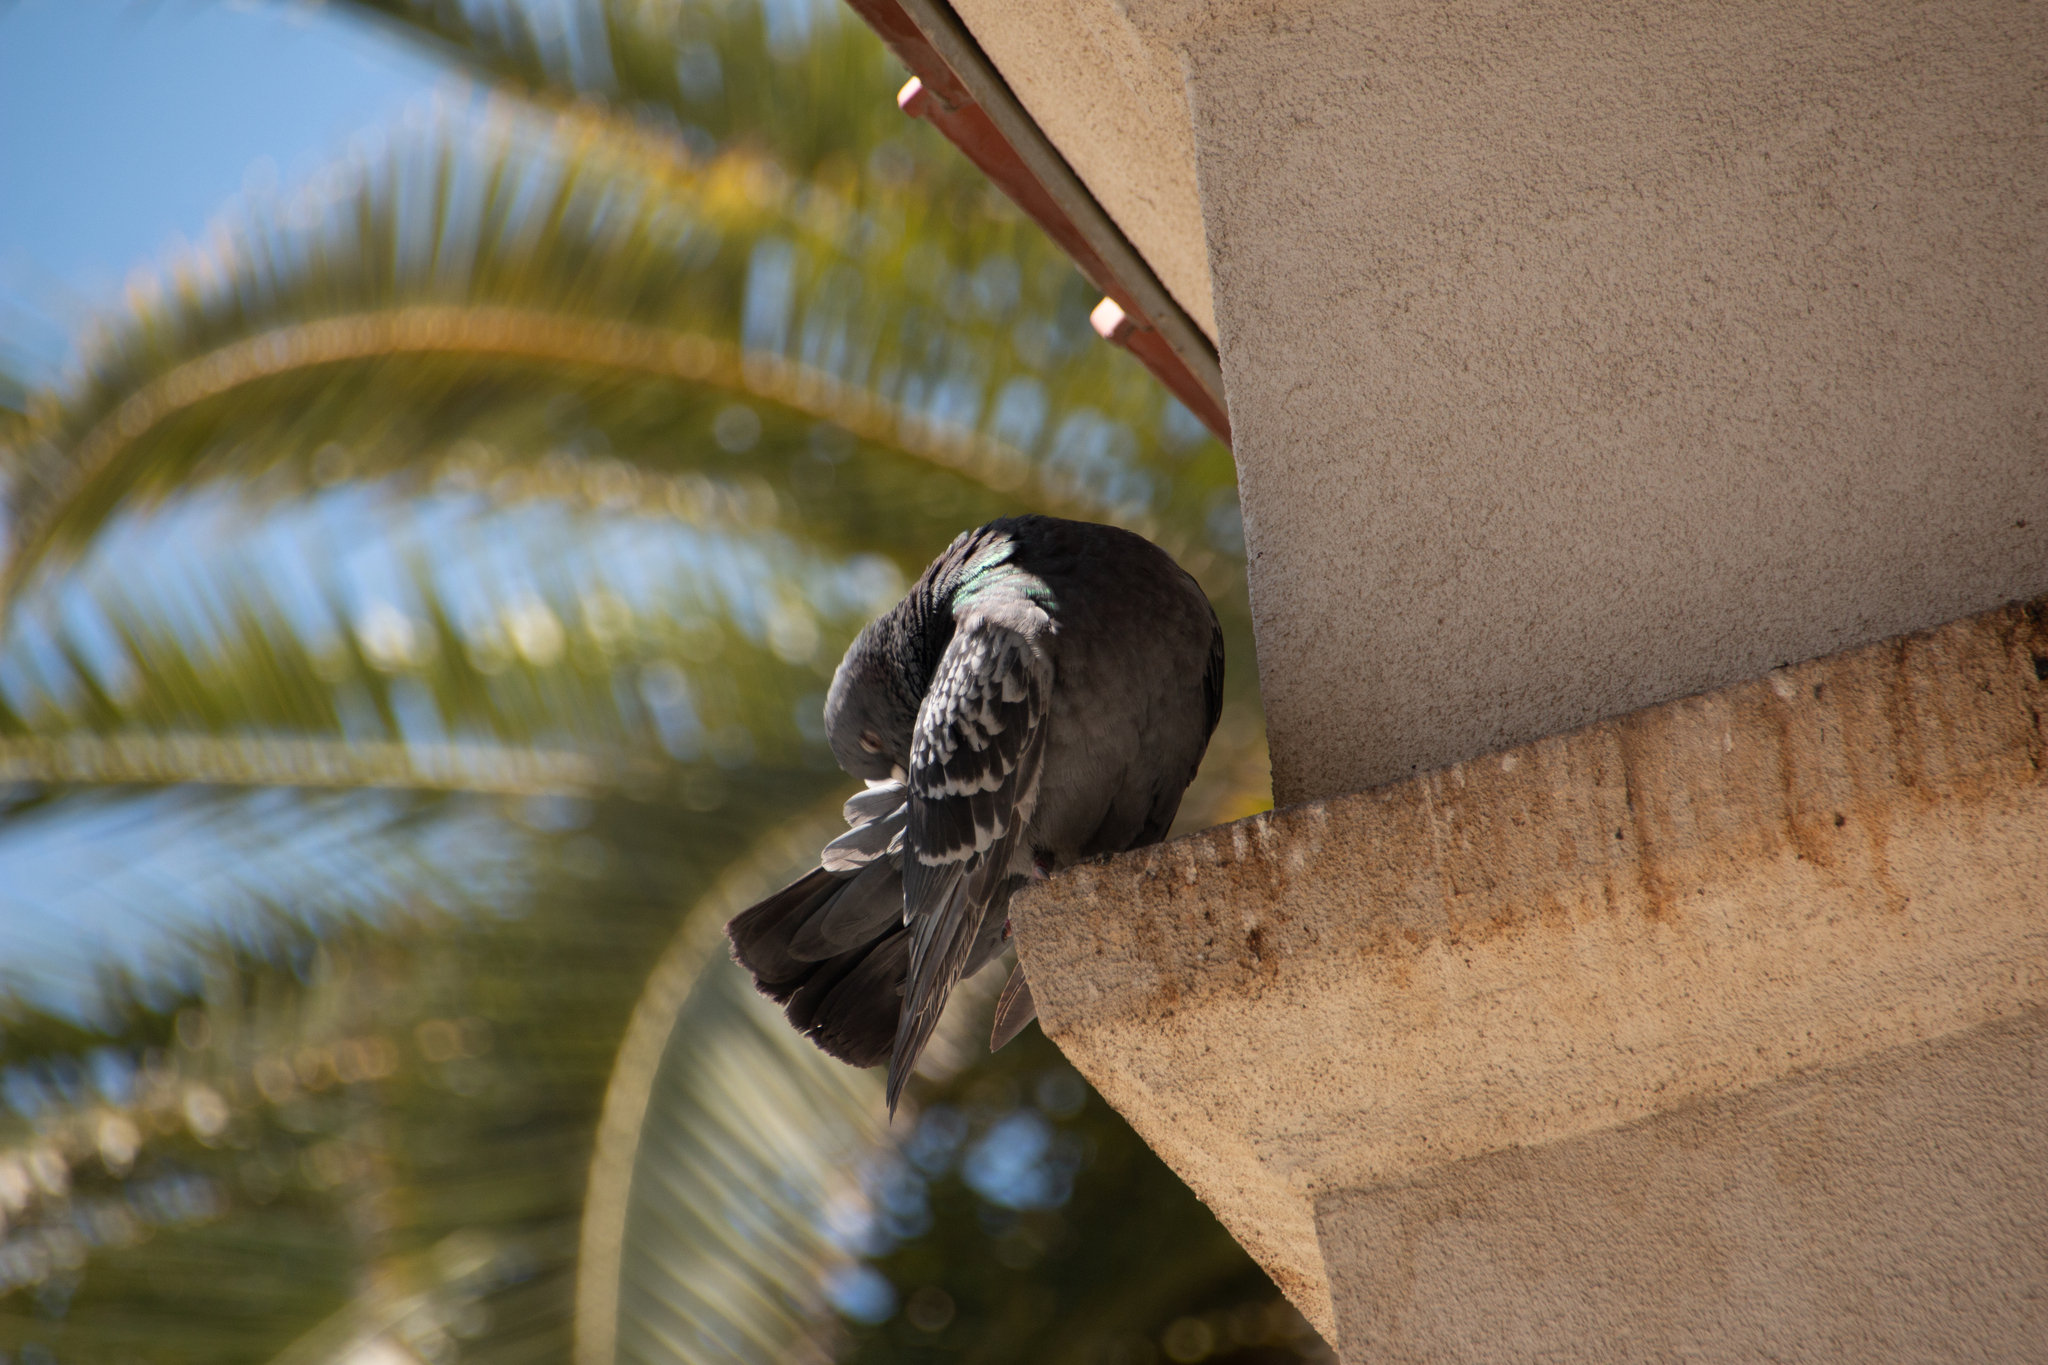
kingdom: Animalia
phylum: Chordata
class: Aves
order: Columbiformes
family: Columbidae
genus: Columba
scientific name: Columba livia
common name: Rock pigeon
